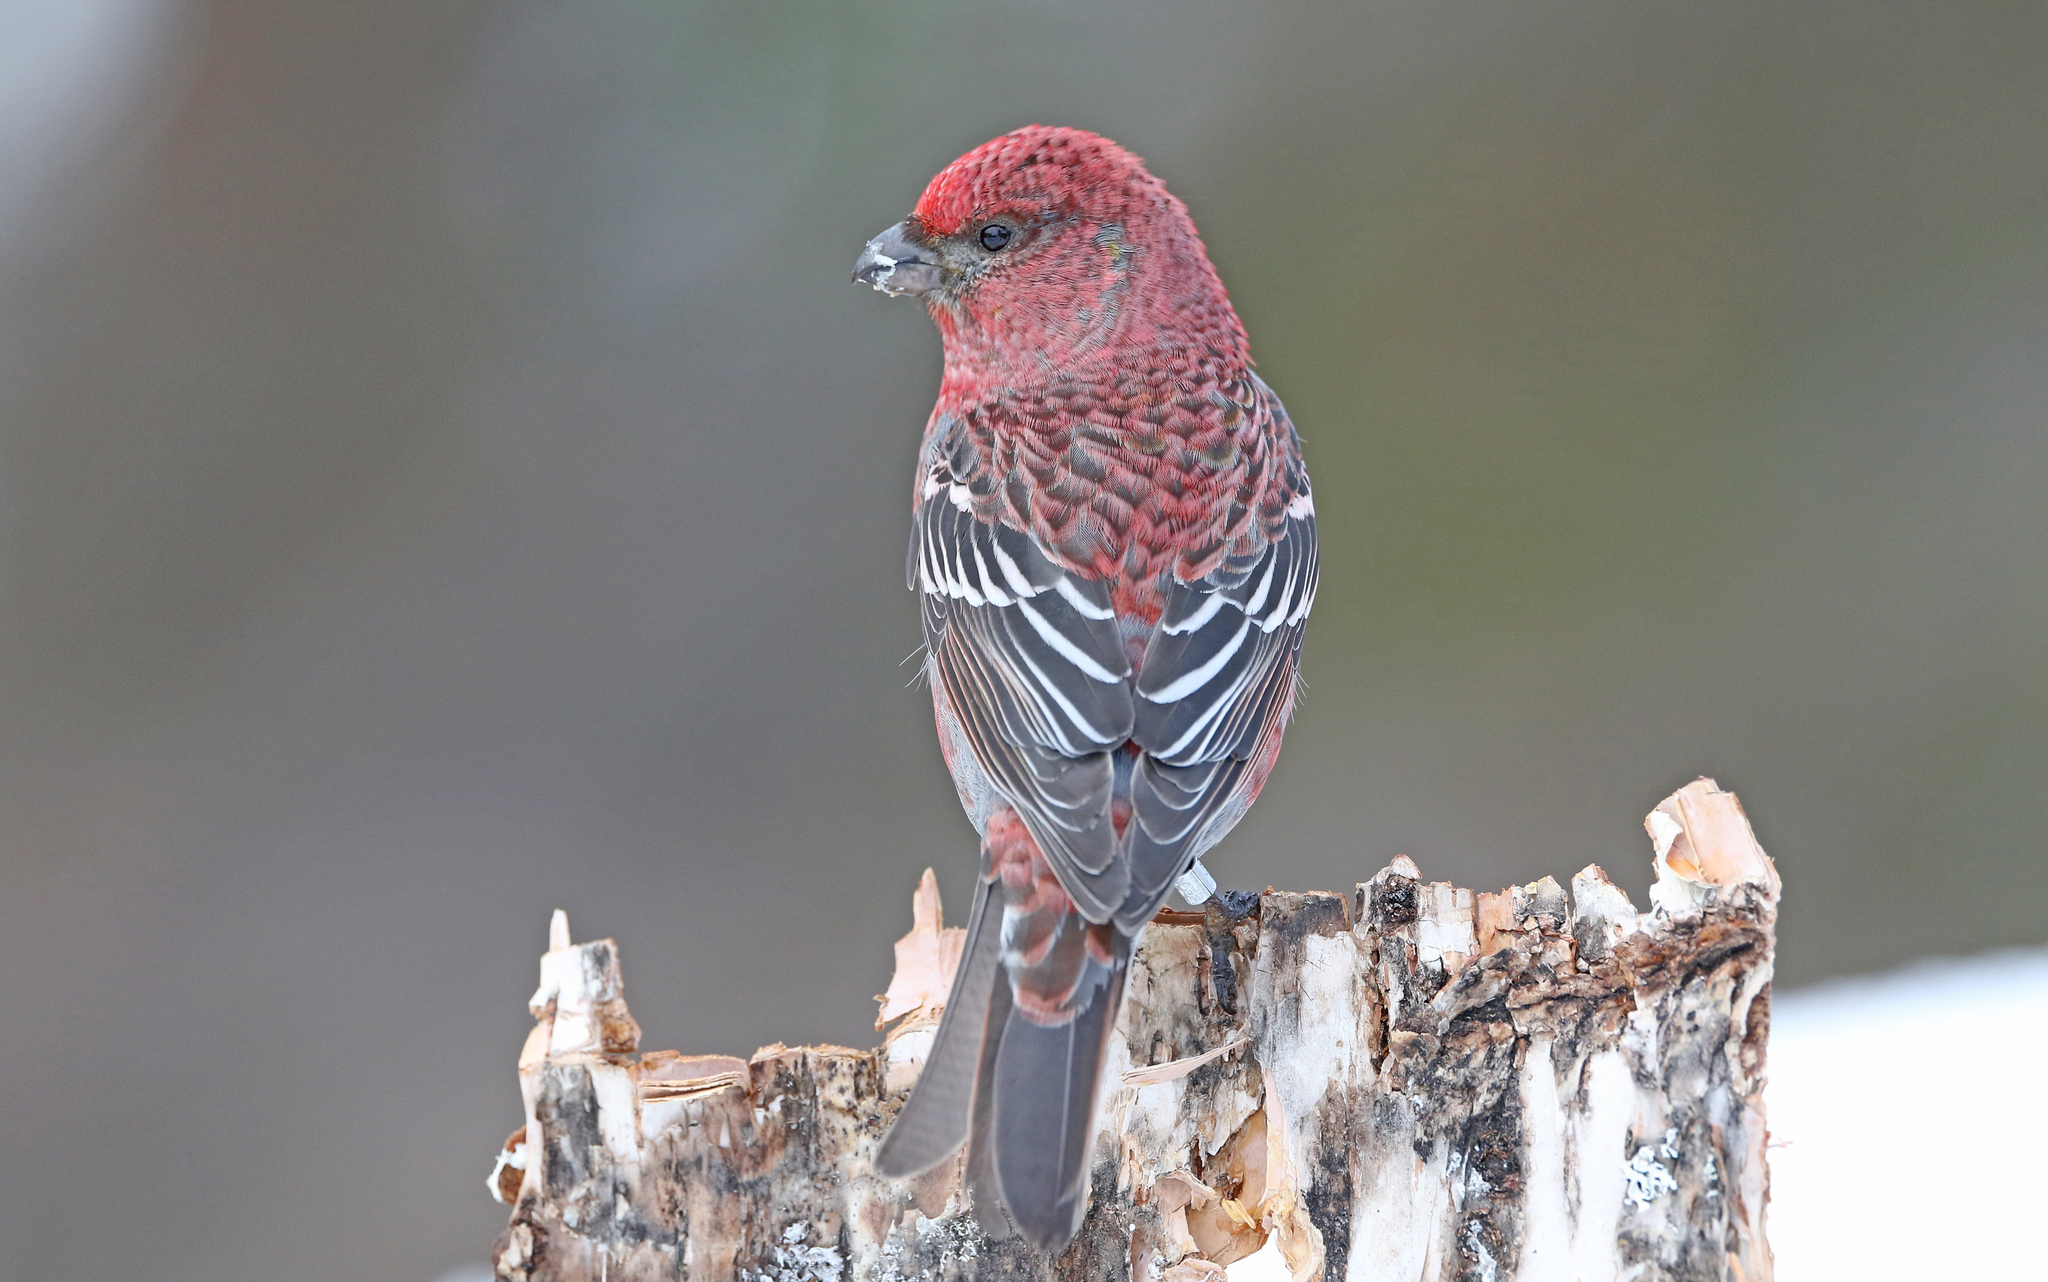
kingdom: Animalia
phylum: Chordata
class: Aves
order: Passeriformes
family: Fringillidae
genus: Pinicola
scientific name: Pinicola enucleator
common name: Pine grosbeak
